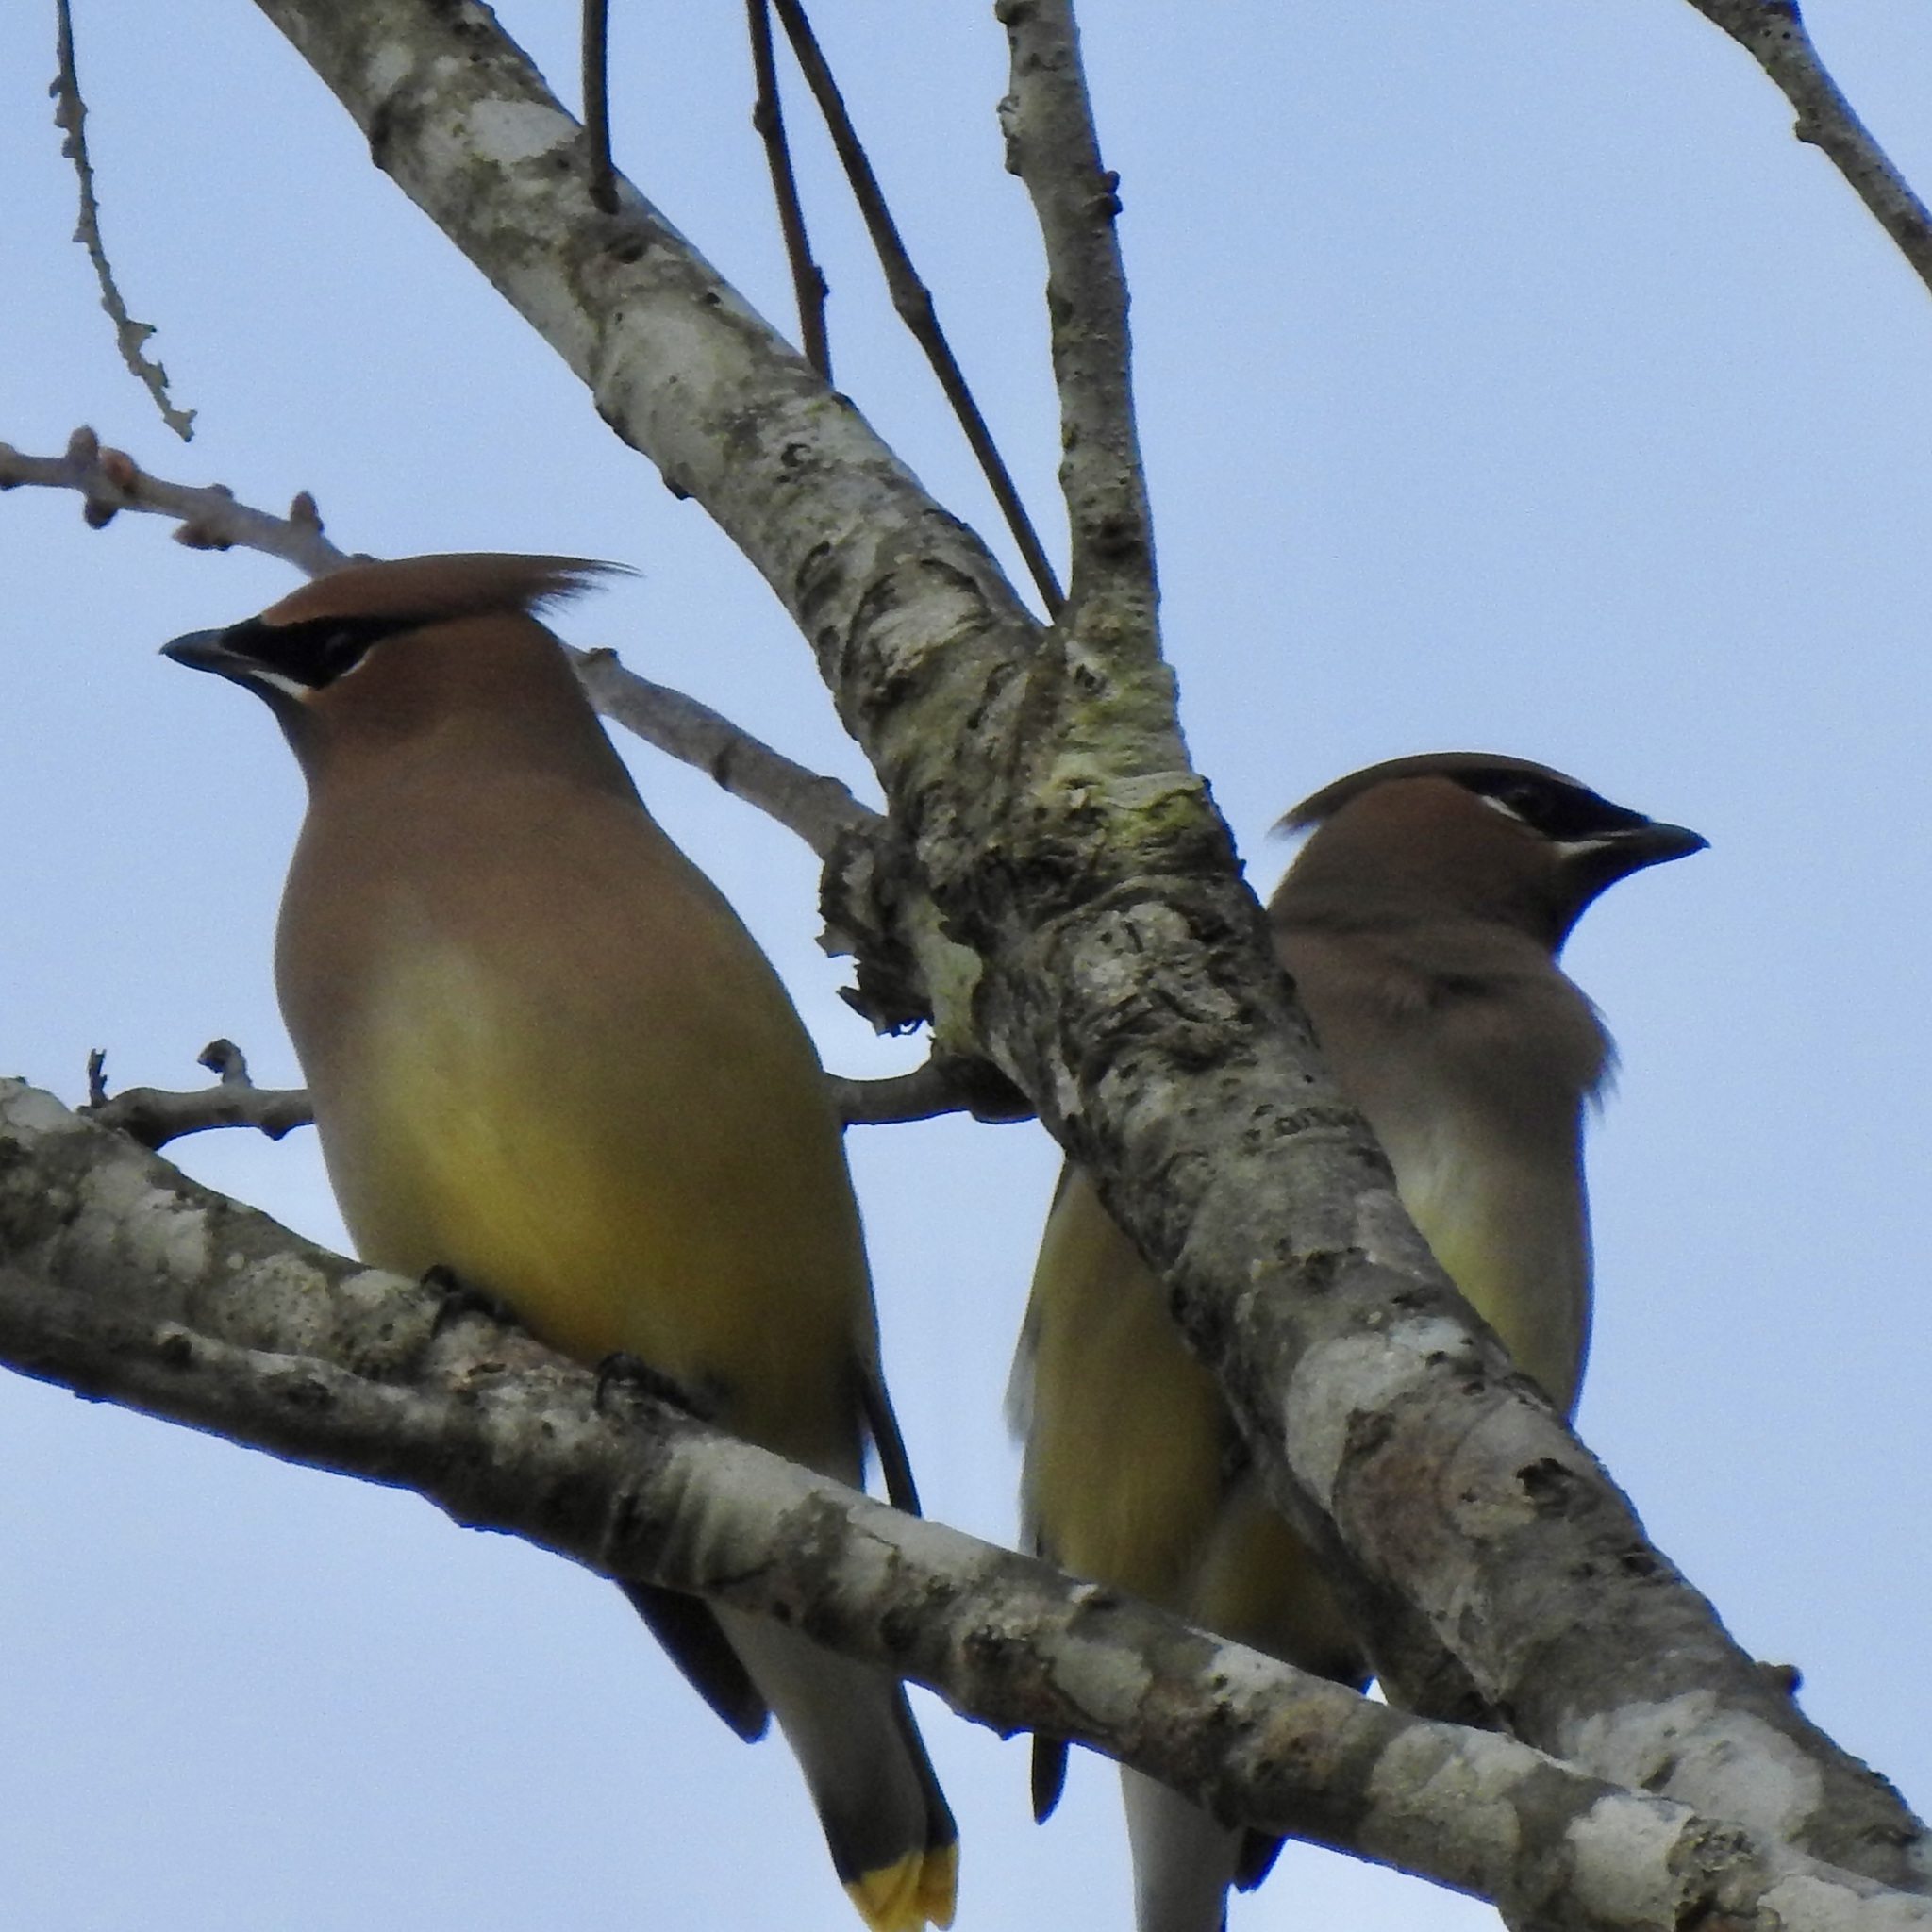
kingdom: Animalia
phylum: Chordata
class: Aves
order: Passeriformes
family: Bombycillidae
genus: Bombycilla
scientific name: Bombycilla cedrorum
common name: Cedar waxwing
